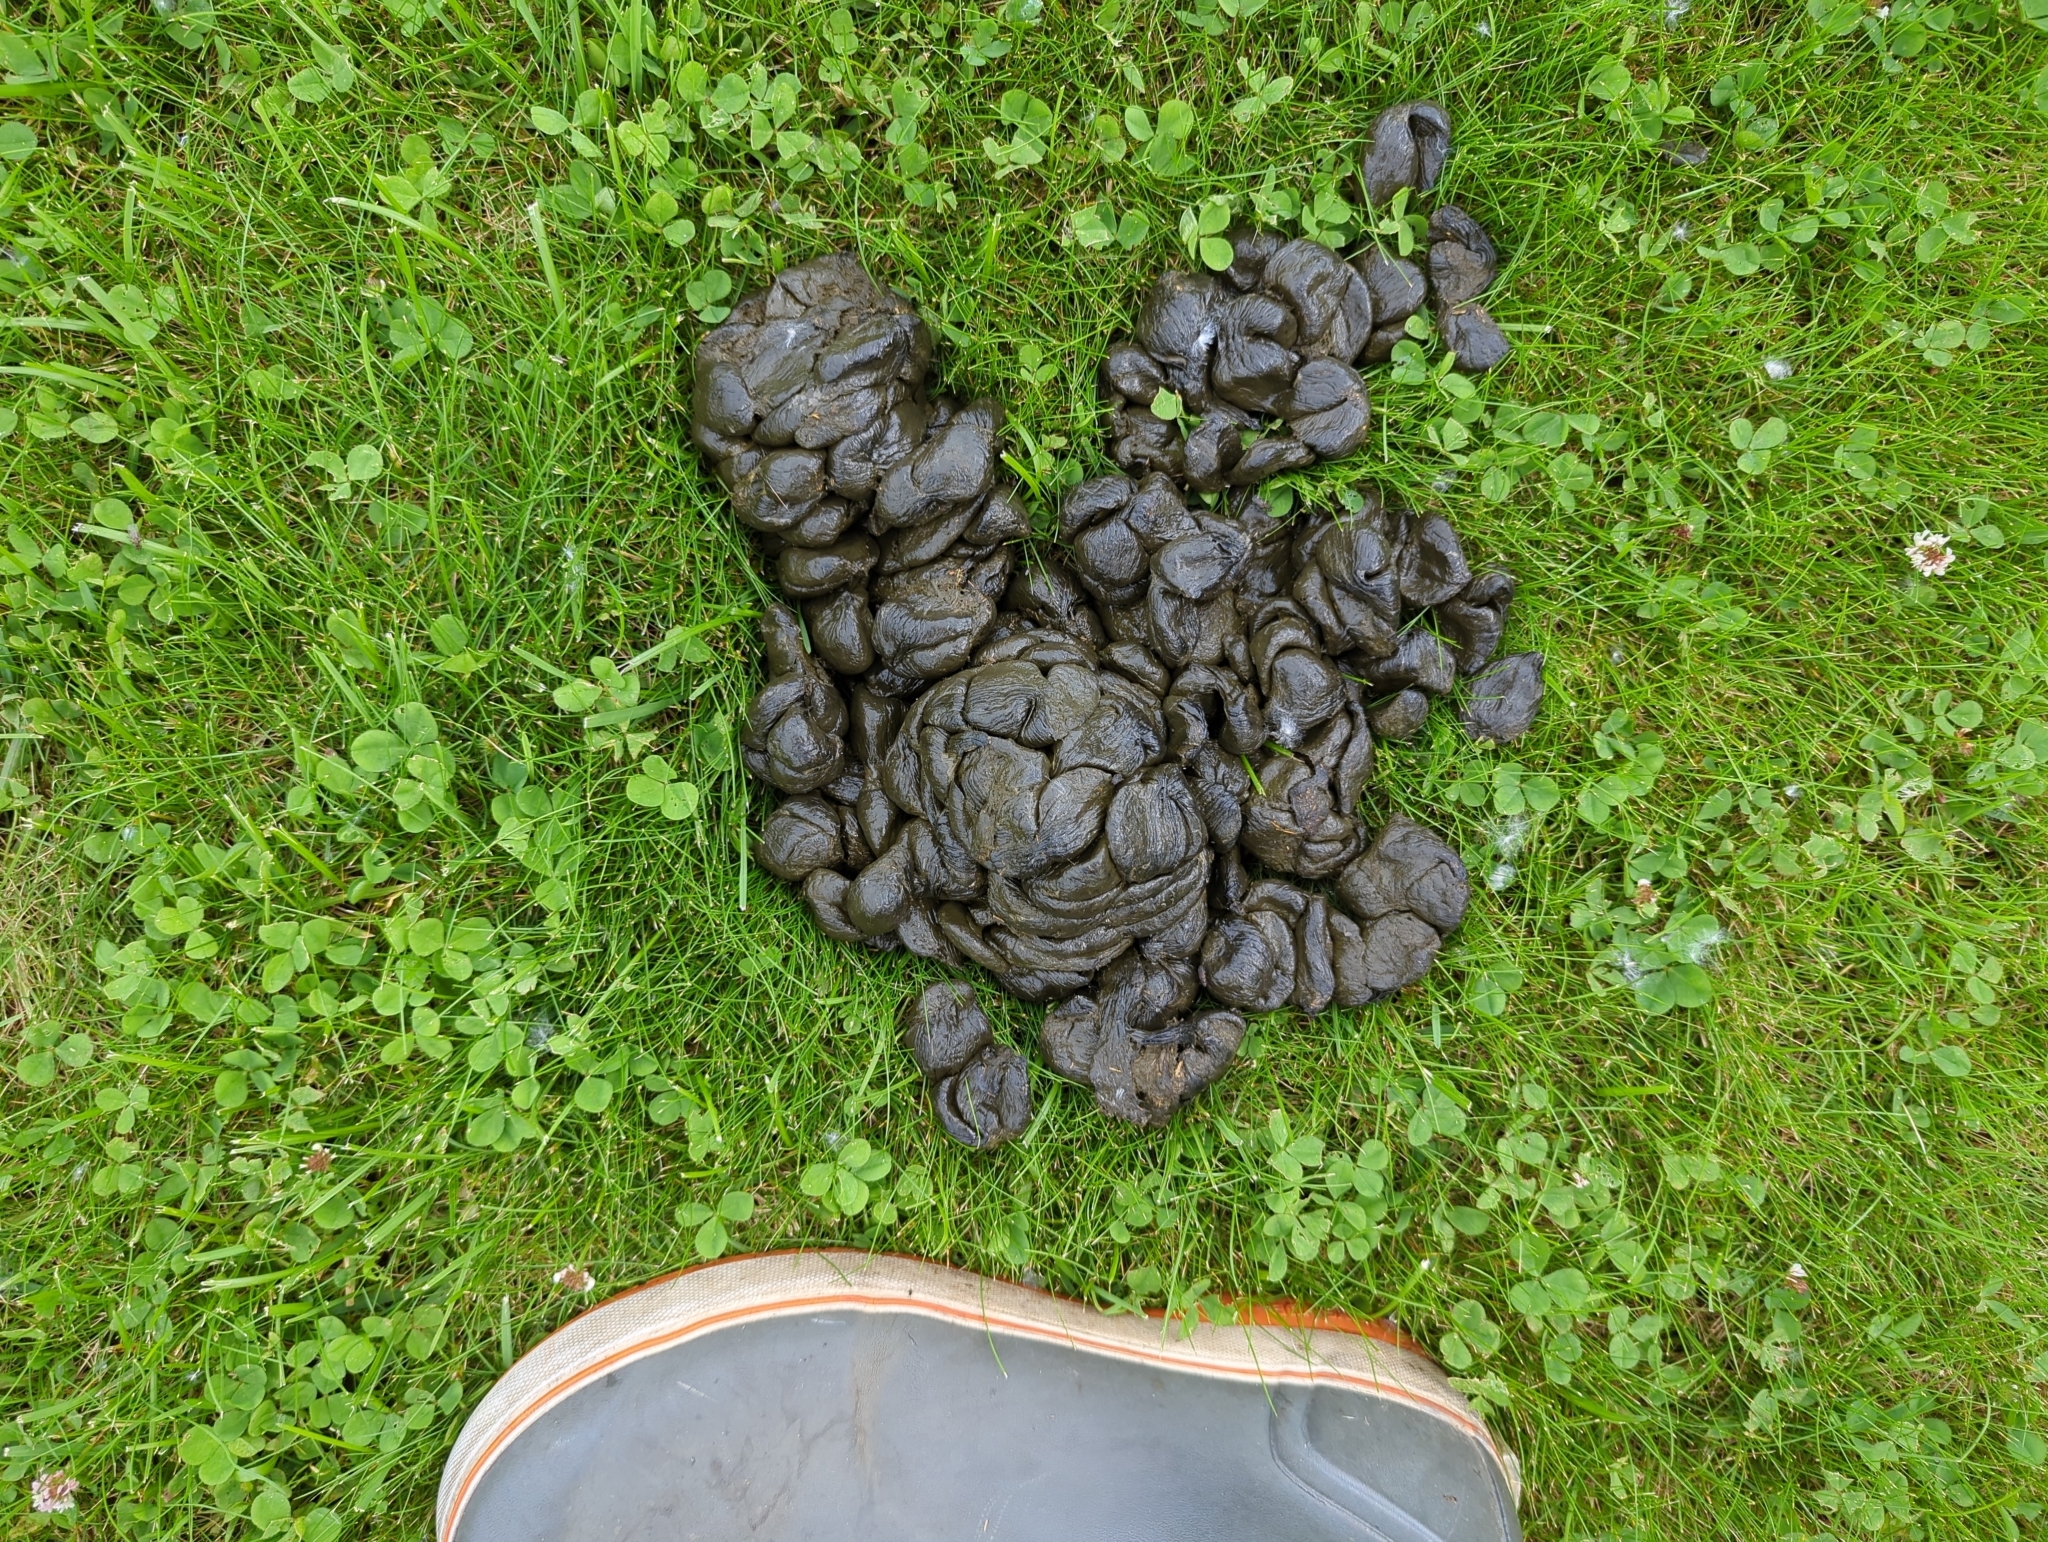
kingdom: Animalia
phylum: Chordata
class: Mammalia
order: Artiodactyla
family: Cervidae
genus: Alces
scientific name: Alces alces
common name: Moose
